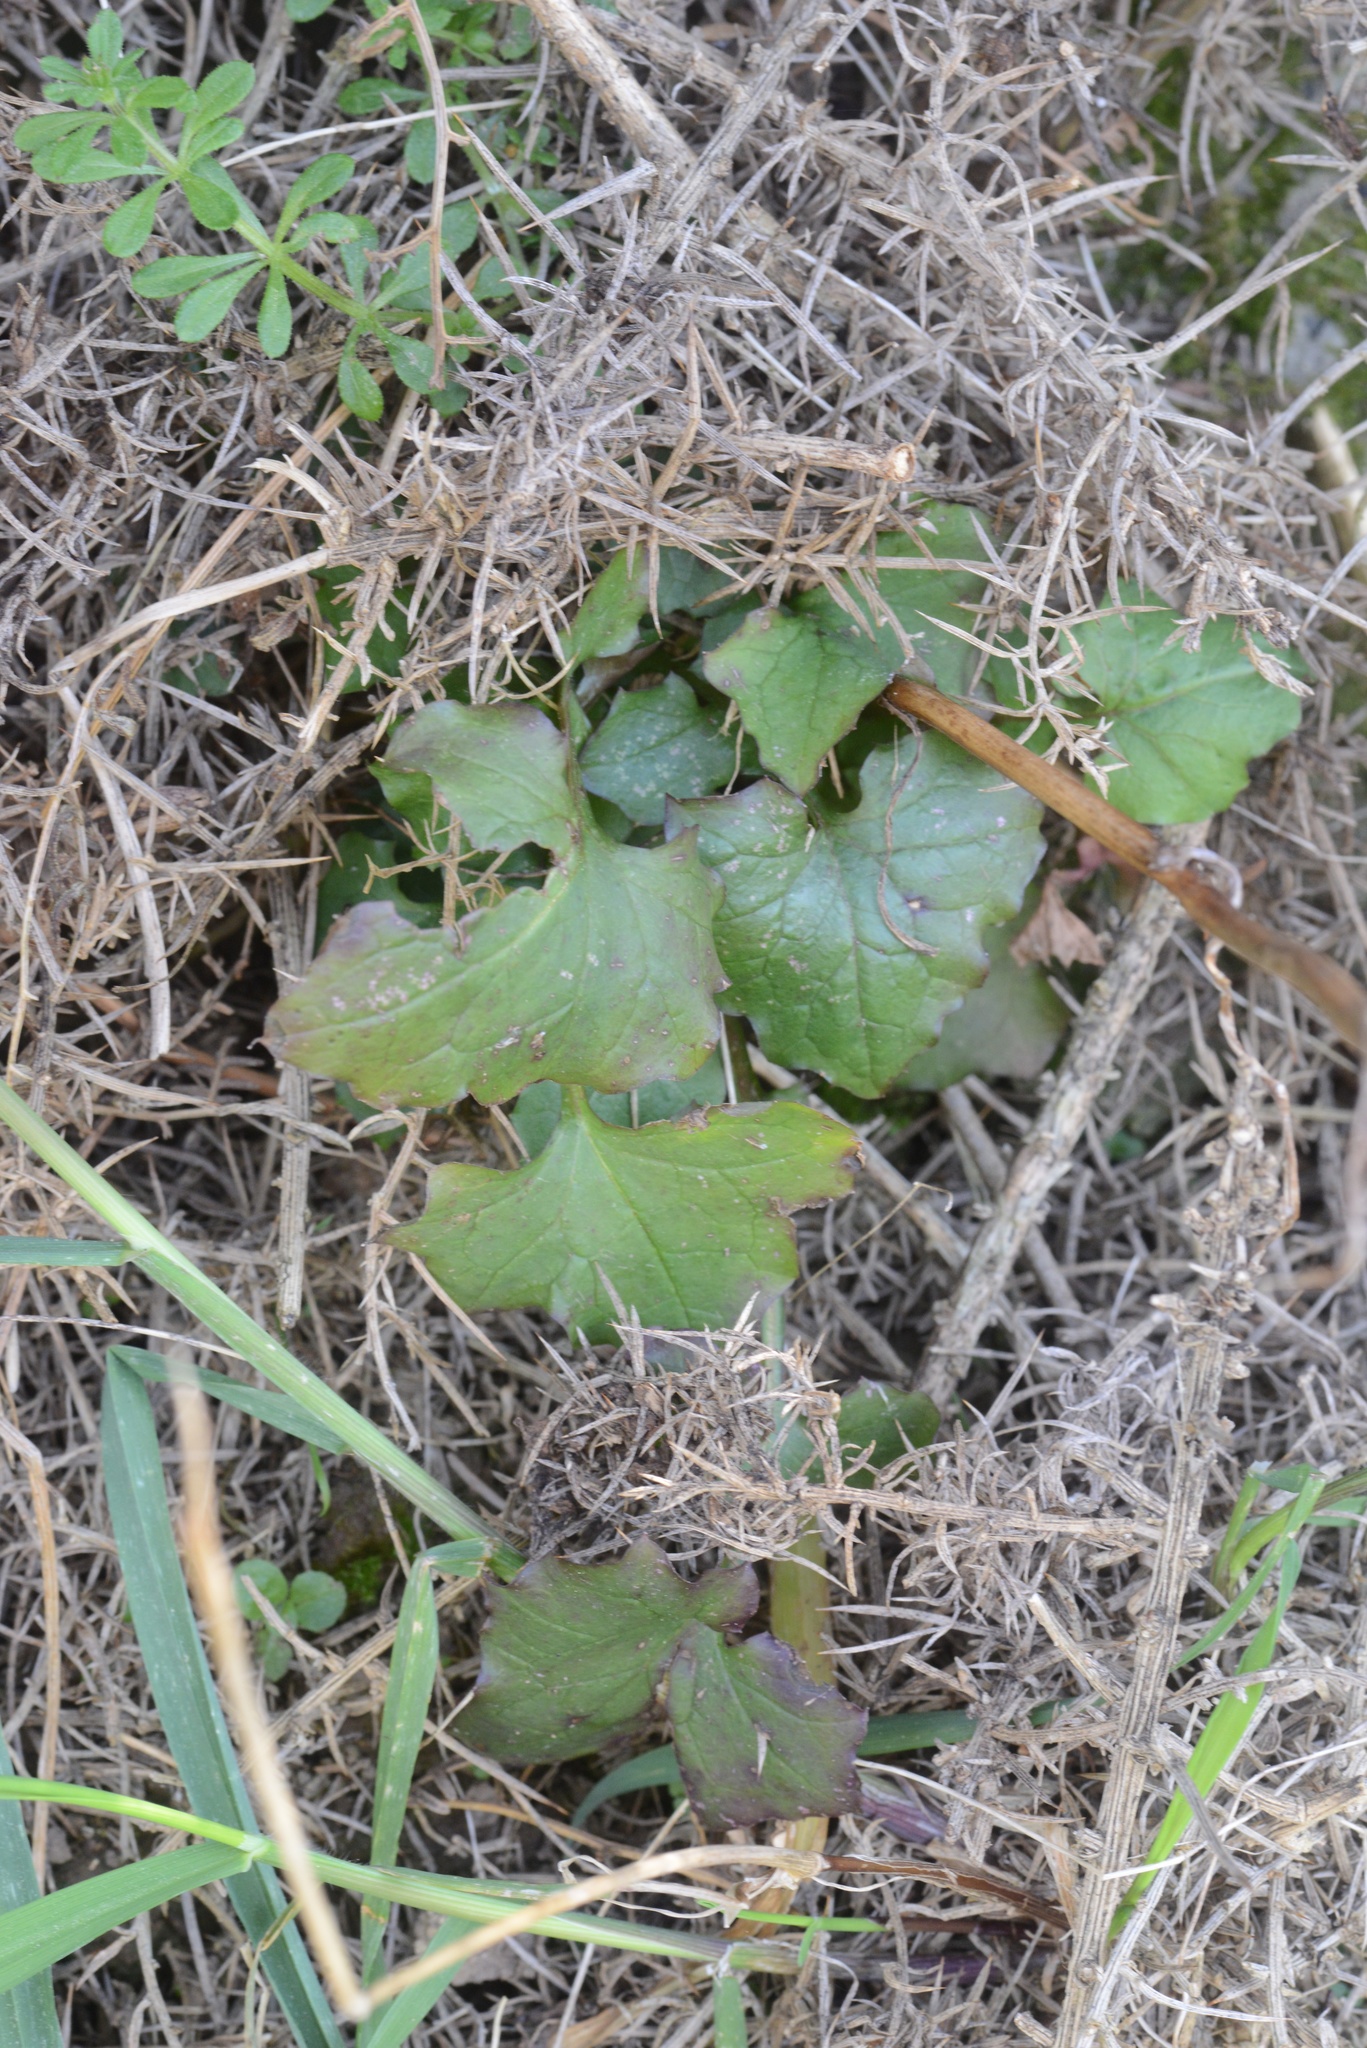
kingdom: Plantae
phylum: Tracheophyta
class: Magnoliopsida
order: Asterales
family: Asteraceae
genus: Mycelis
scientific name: Mycelis muralis
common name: Wall lettuce
